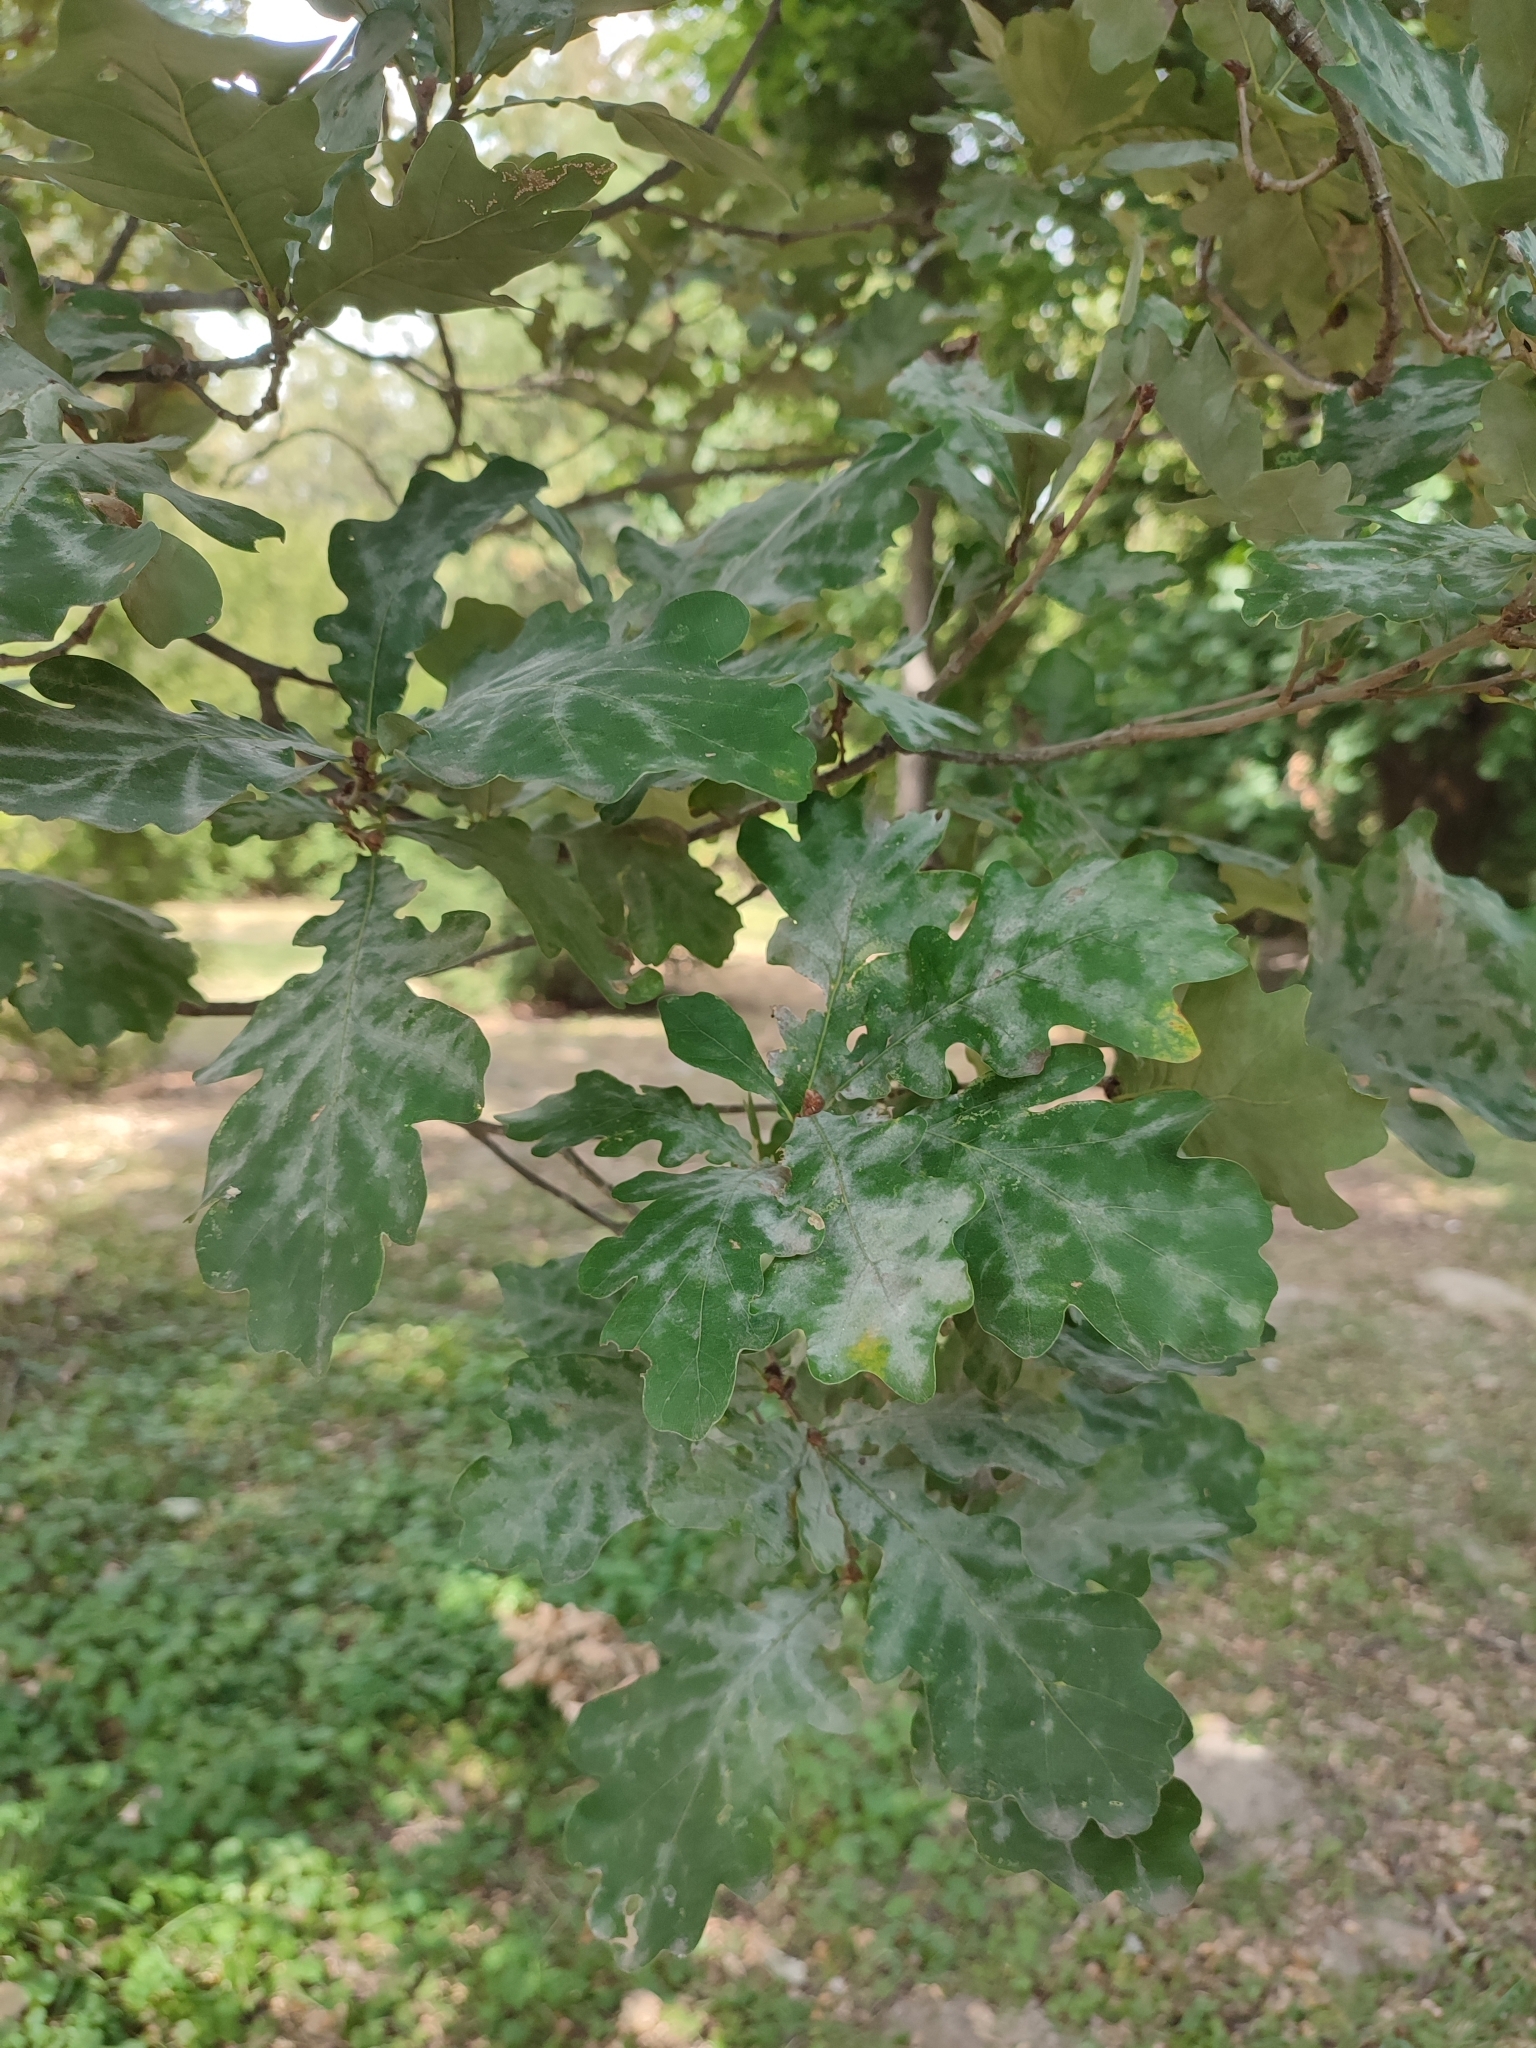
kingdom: Fungi
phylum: Ascomycota
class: Leotiomycetes
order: Helotiales
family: Erysiphaceae
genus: Erysiphe
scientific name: Erysiphe alphitoides
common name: Oak mildew
